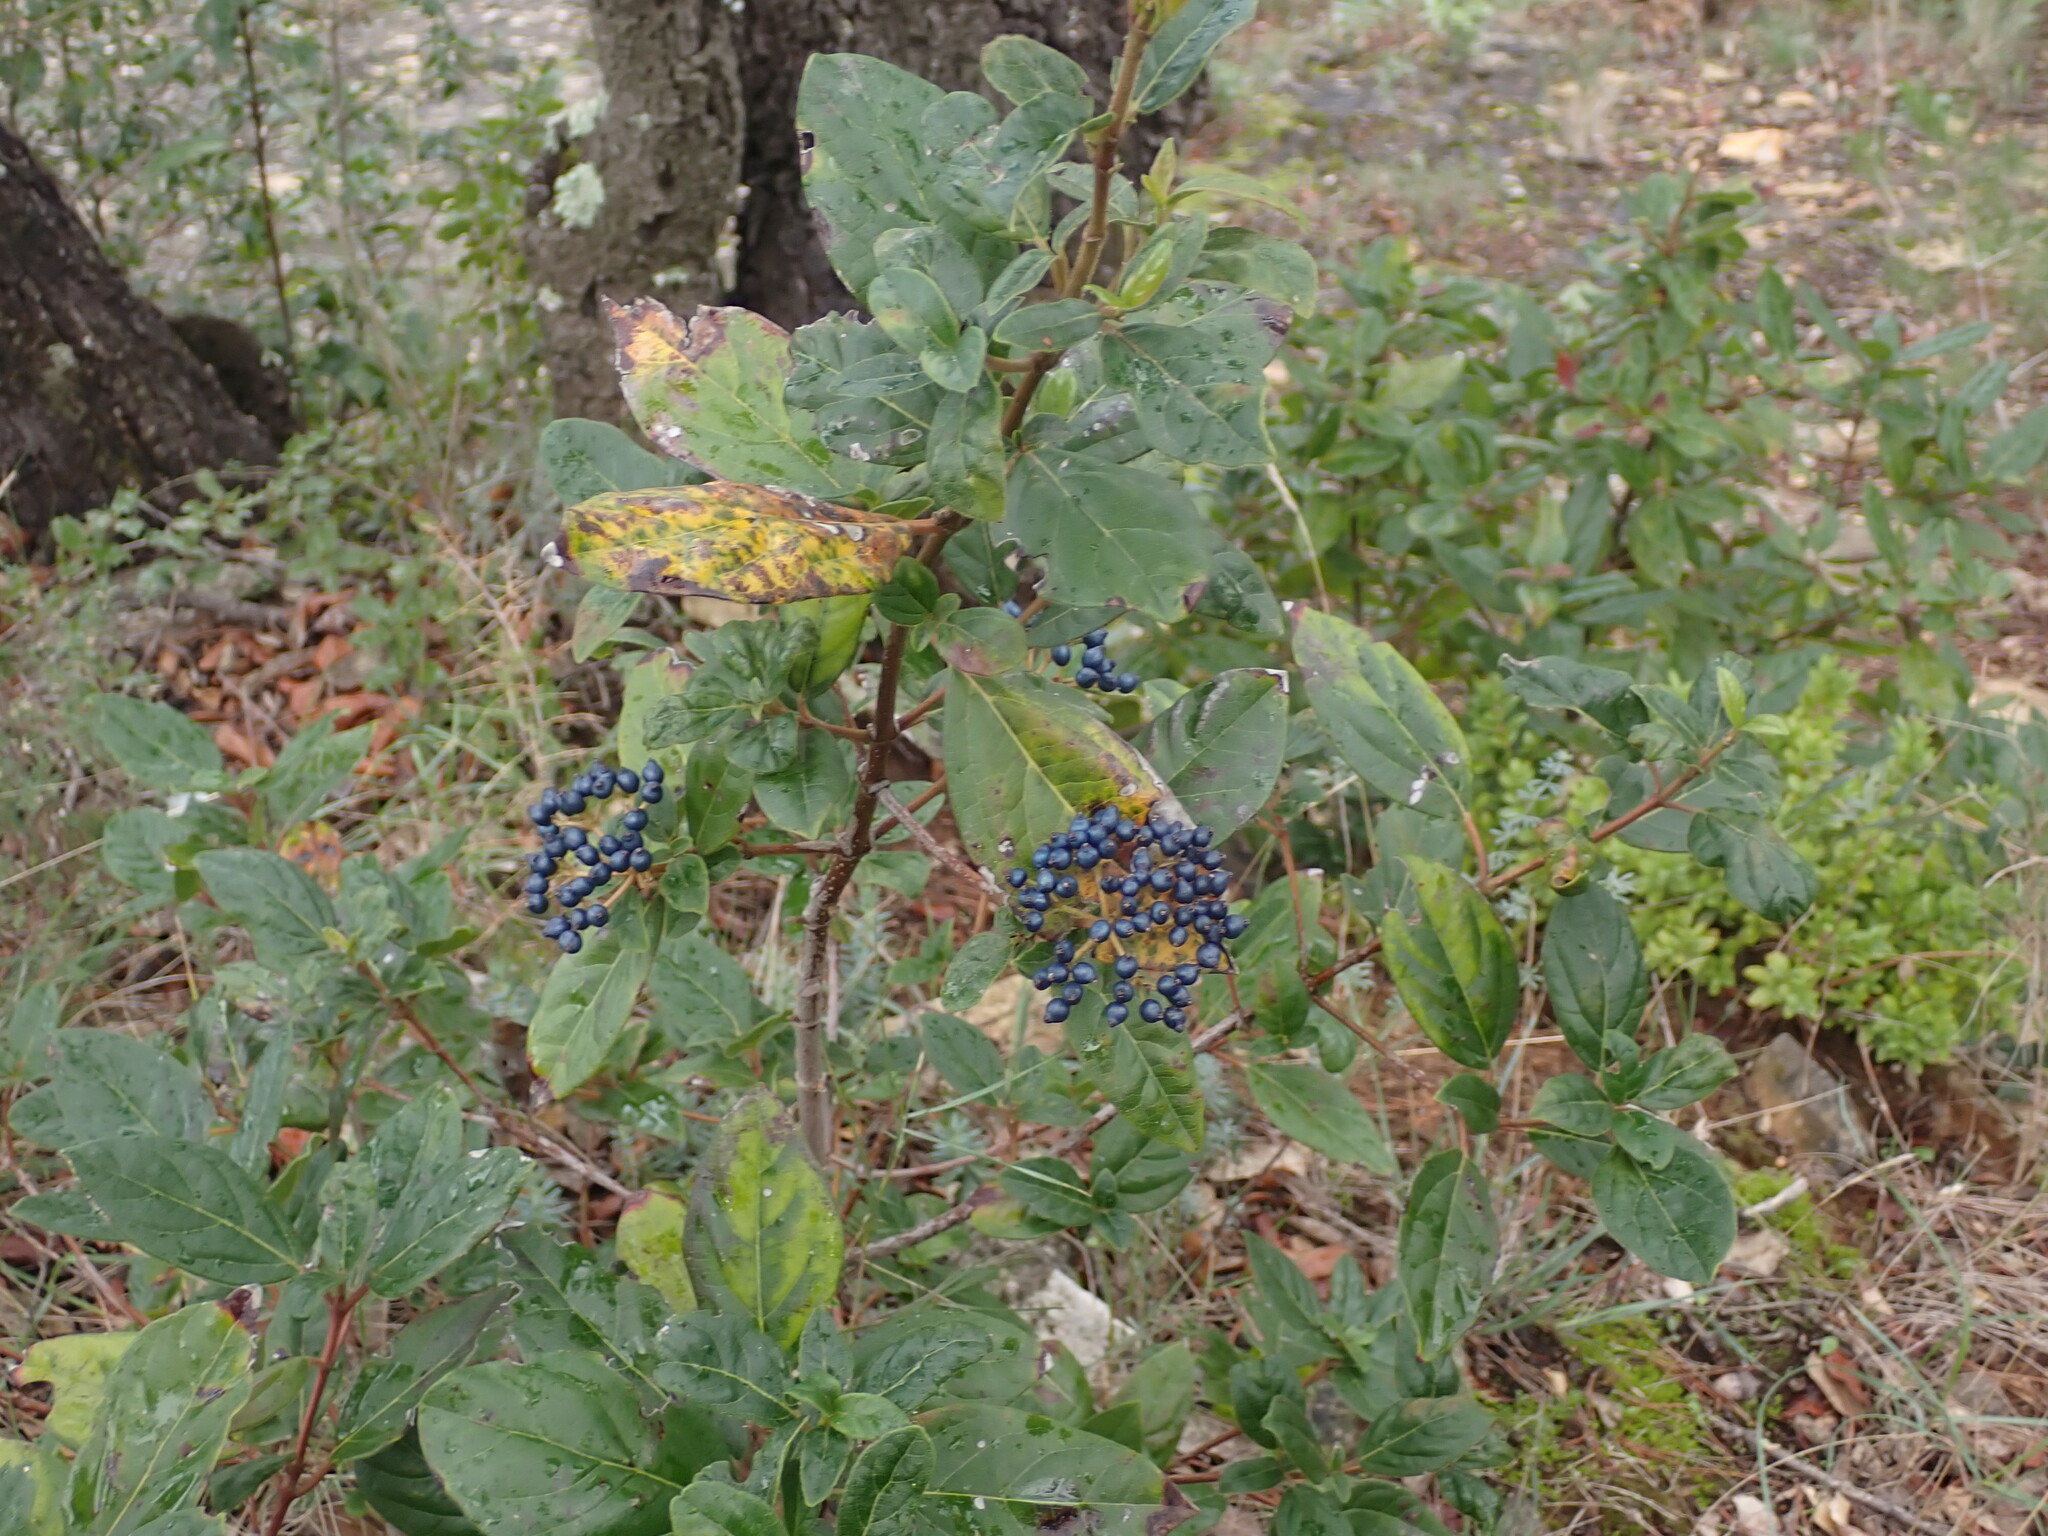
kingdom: Plantae
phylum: Tracheophyta
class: Magnoliopsida
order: Dipsacales
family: Viburnaceae
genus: Viburnum
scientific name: Viburnum tinus
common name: Laurustinus
